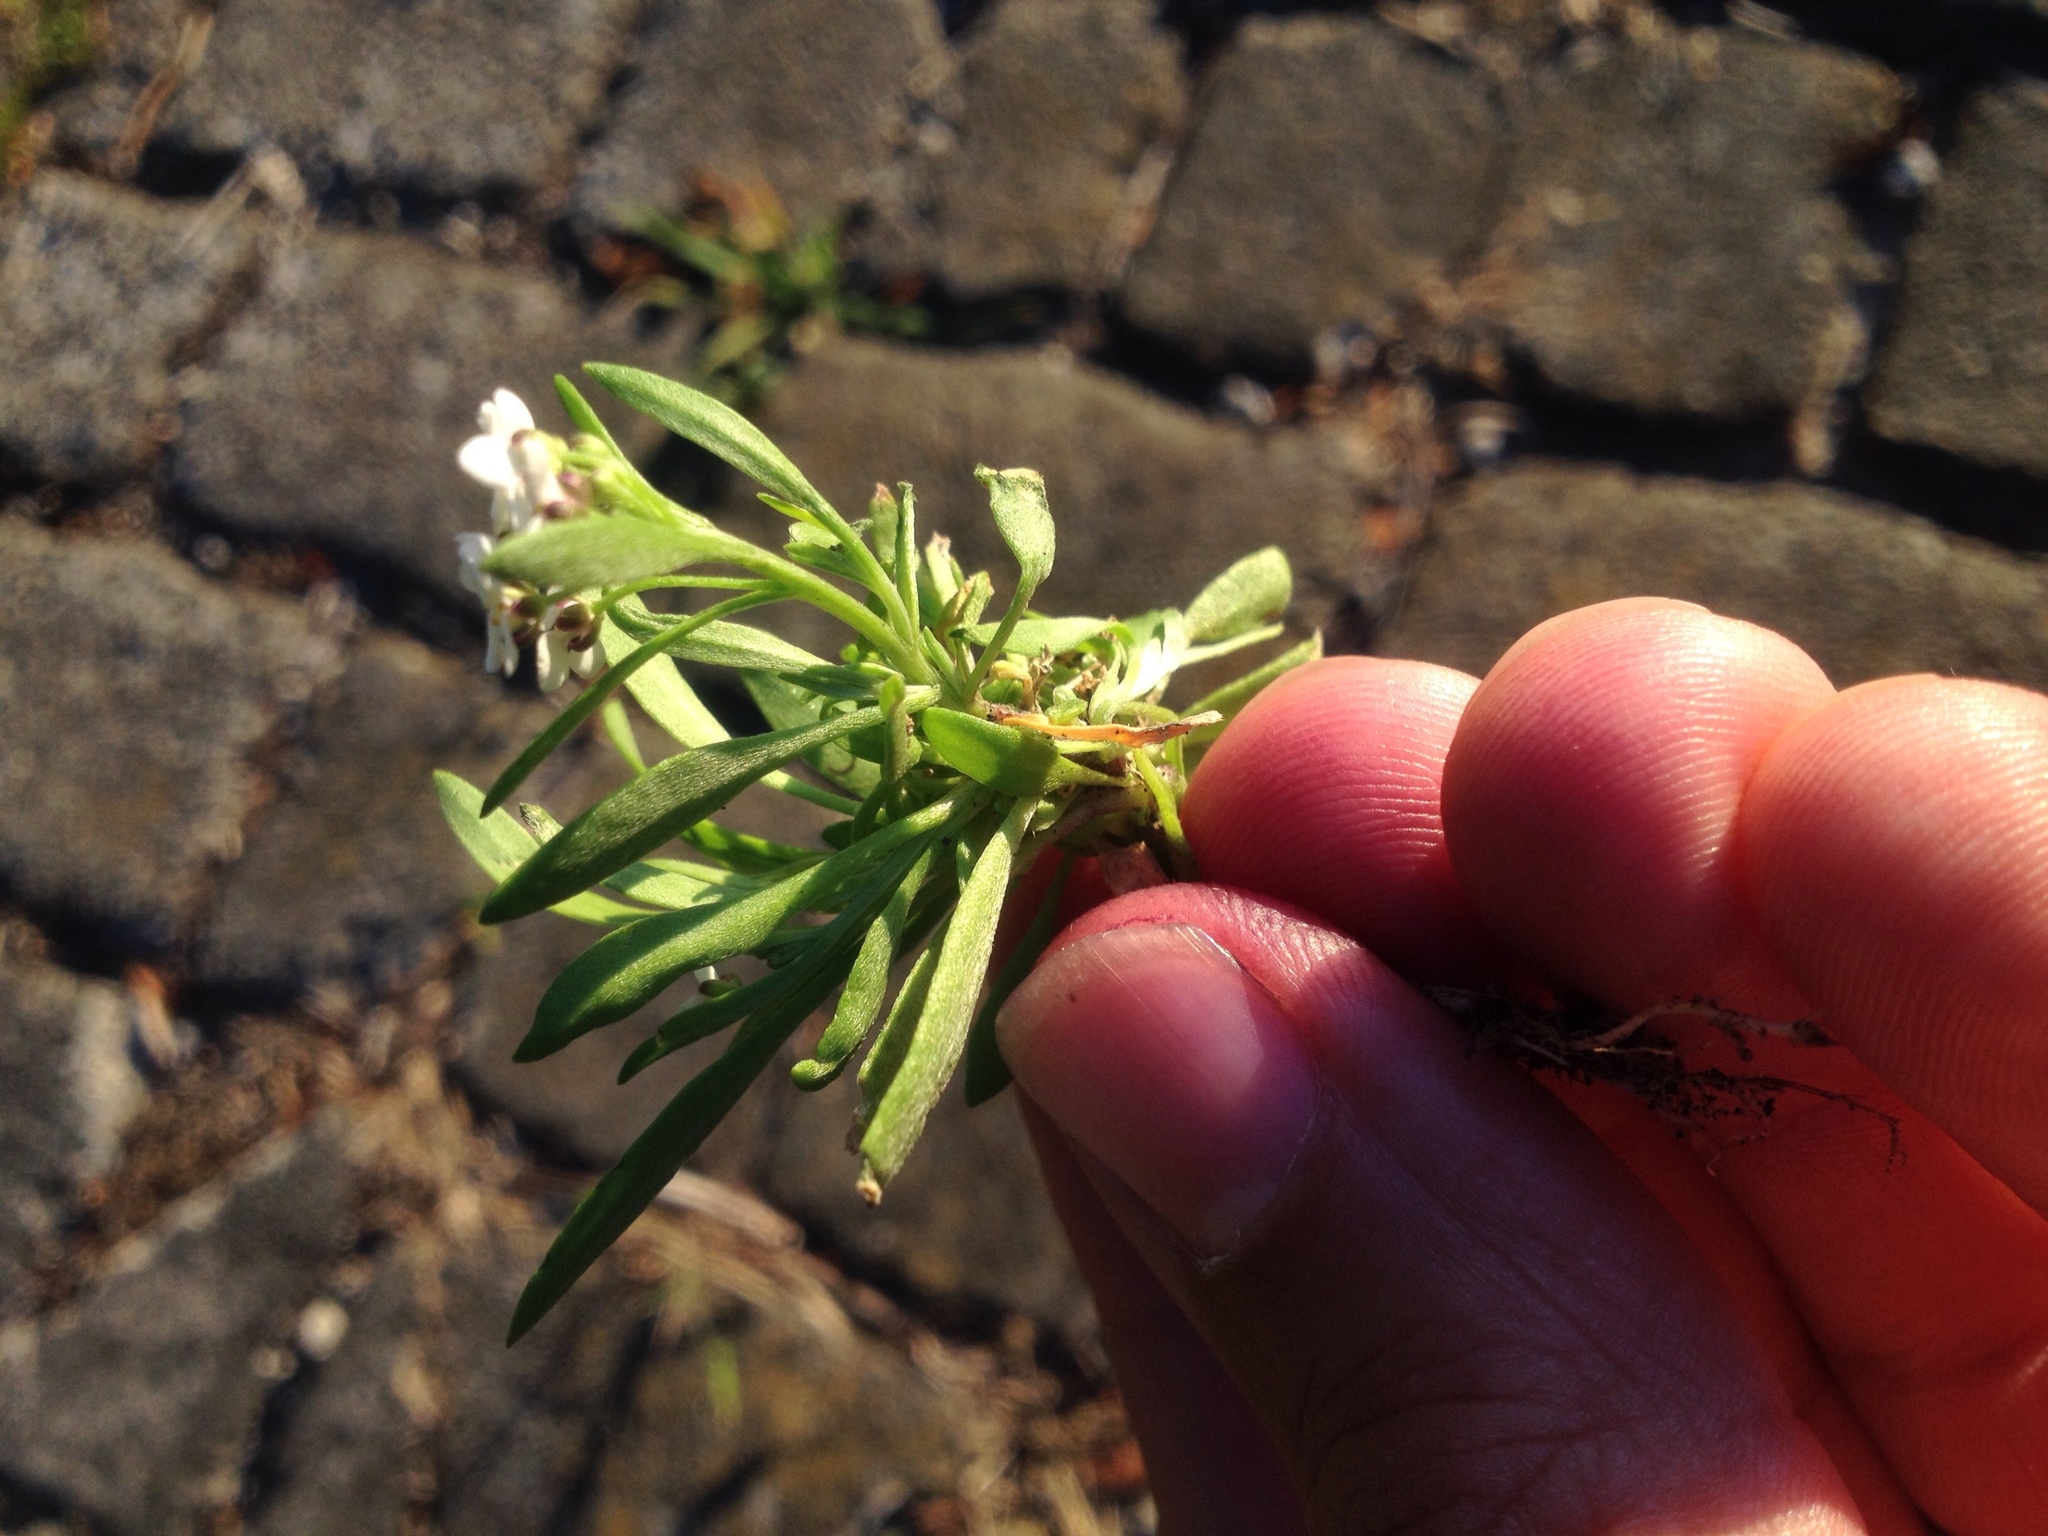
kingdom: Plantae
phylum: Tracheophyta
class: Magnoliopsida
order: Brassicales
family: Brassicaceae
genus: Lobularia
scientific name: Lobularia maritima
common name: Sweet alison
